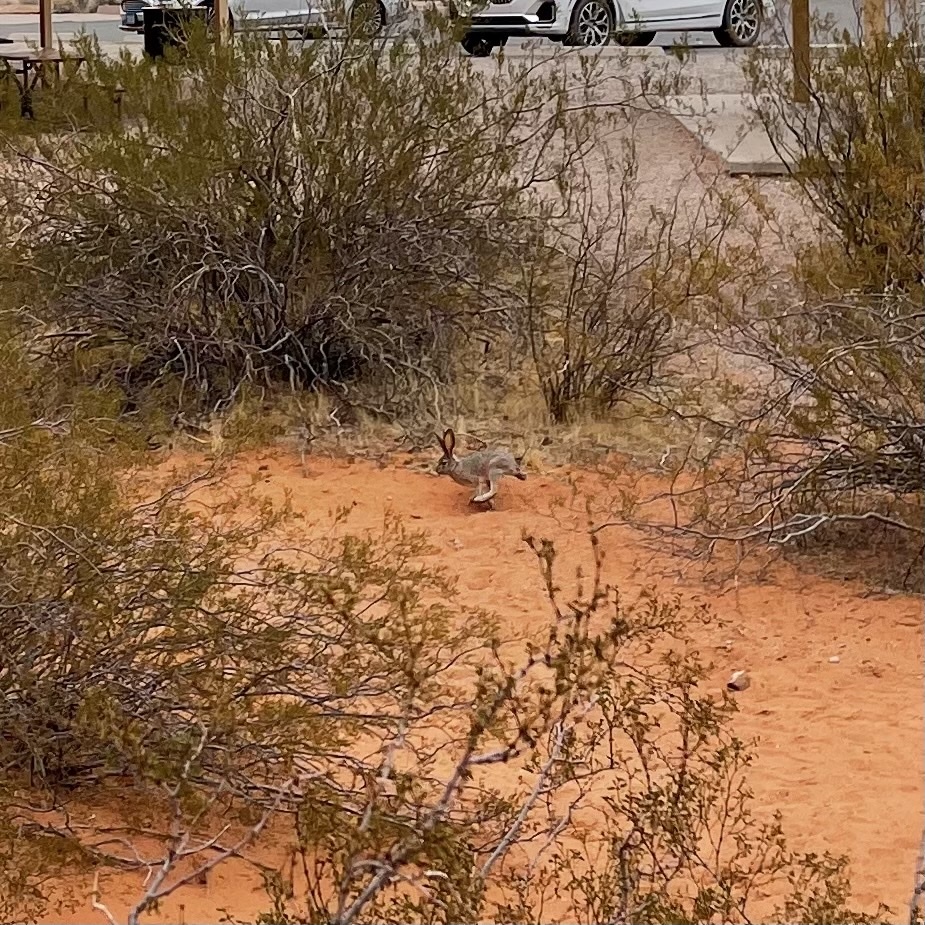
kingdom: Animalia
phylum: Chordata
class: Mammalia
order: Lagomorpha
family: Leporidae
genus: Lepus
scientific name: Lepus californicus
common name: Black-tailed jackrabbit
